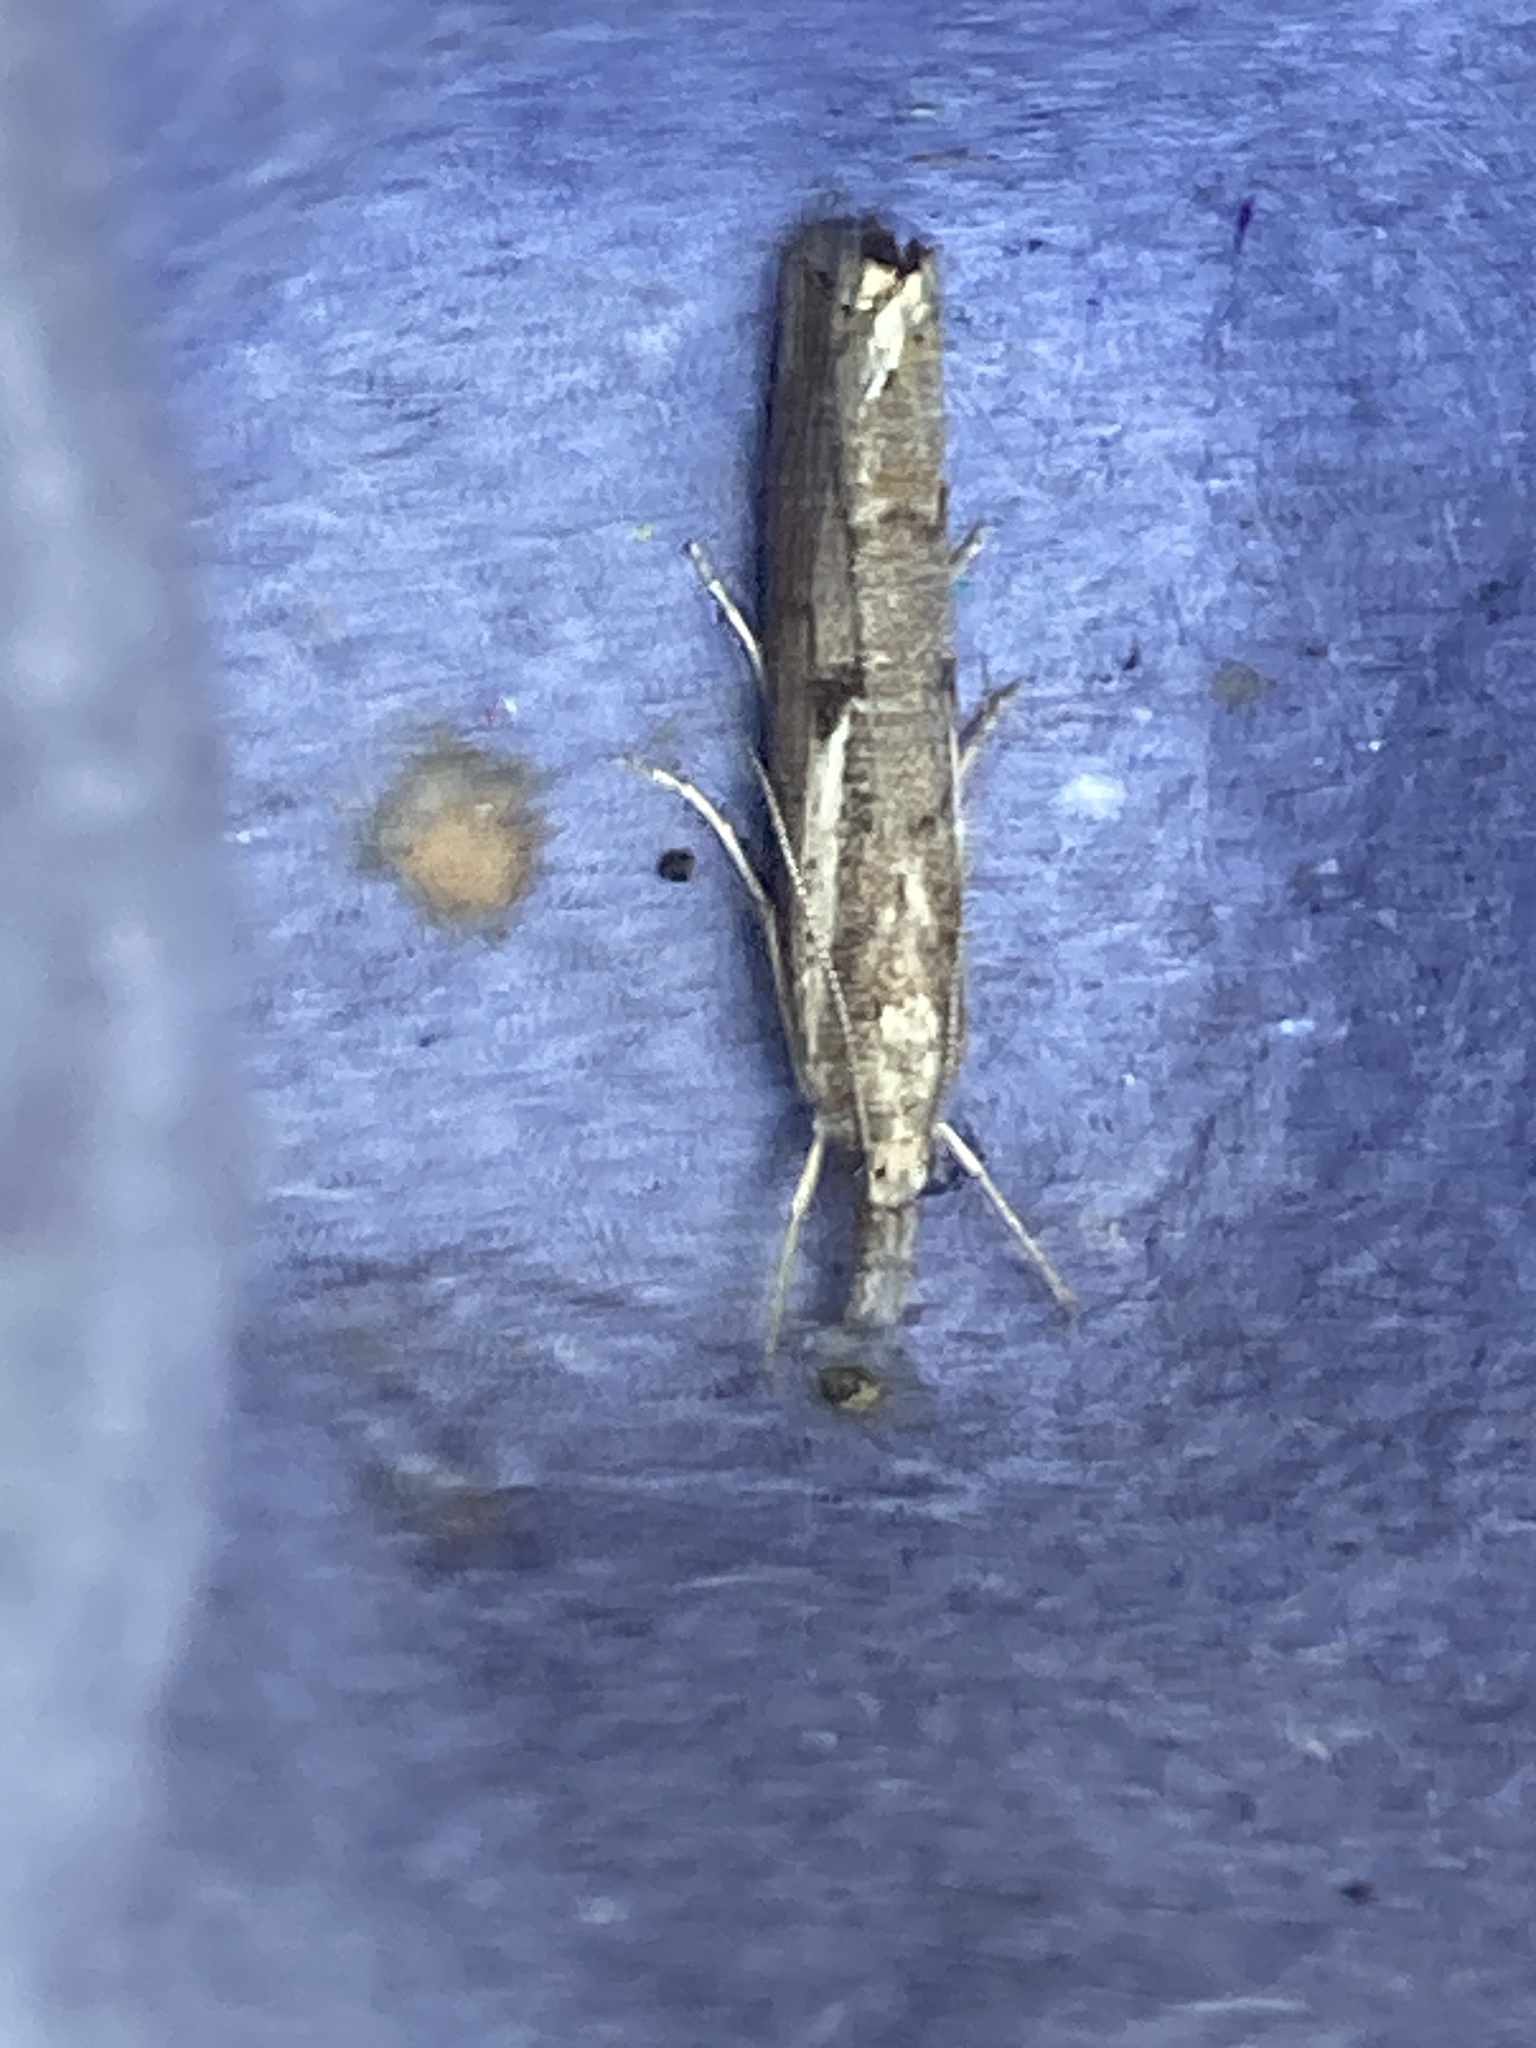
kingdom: Animalia
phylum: Arthropoda
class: Insecta
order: Lepidoptera
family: Crambidae
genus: Agriphila
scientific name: Agriphila geniculea
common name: Elbow-stripe grass-veneer
